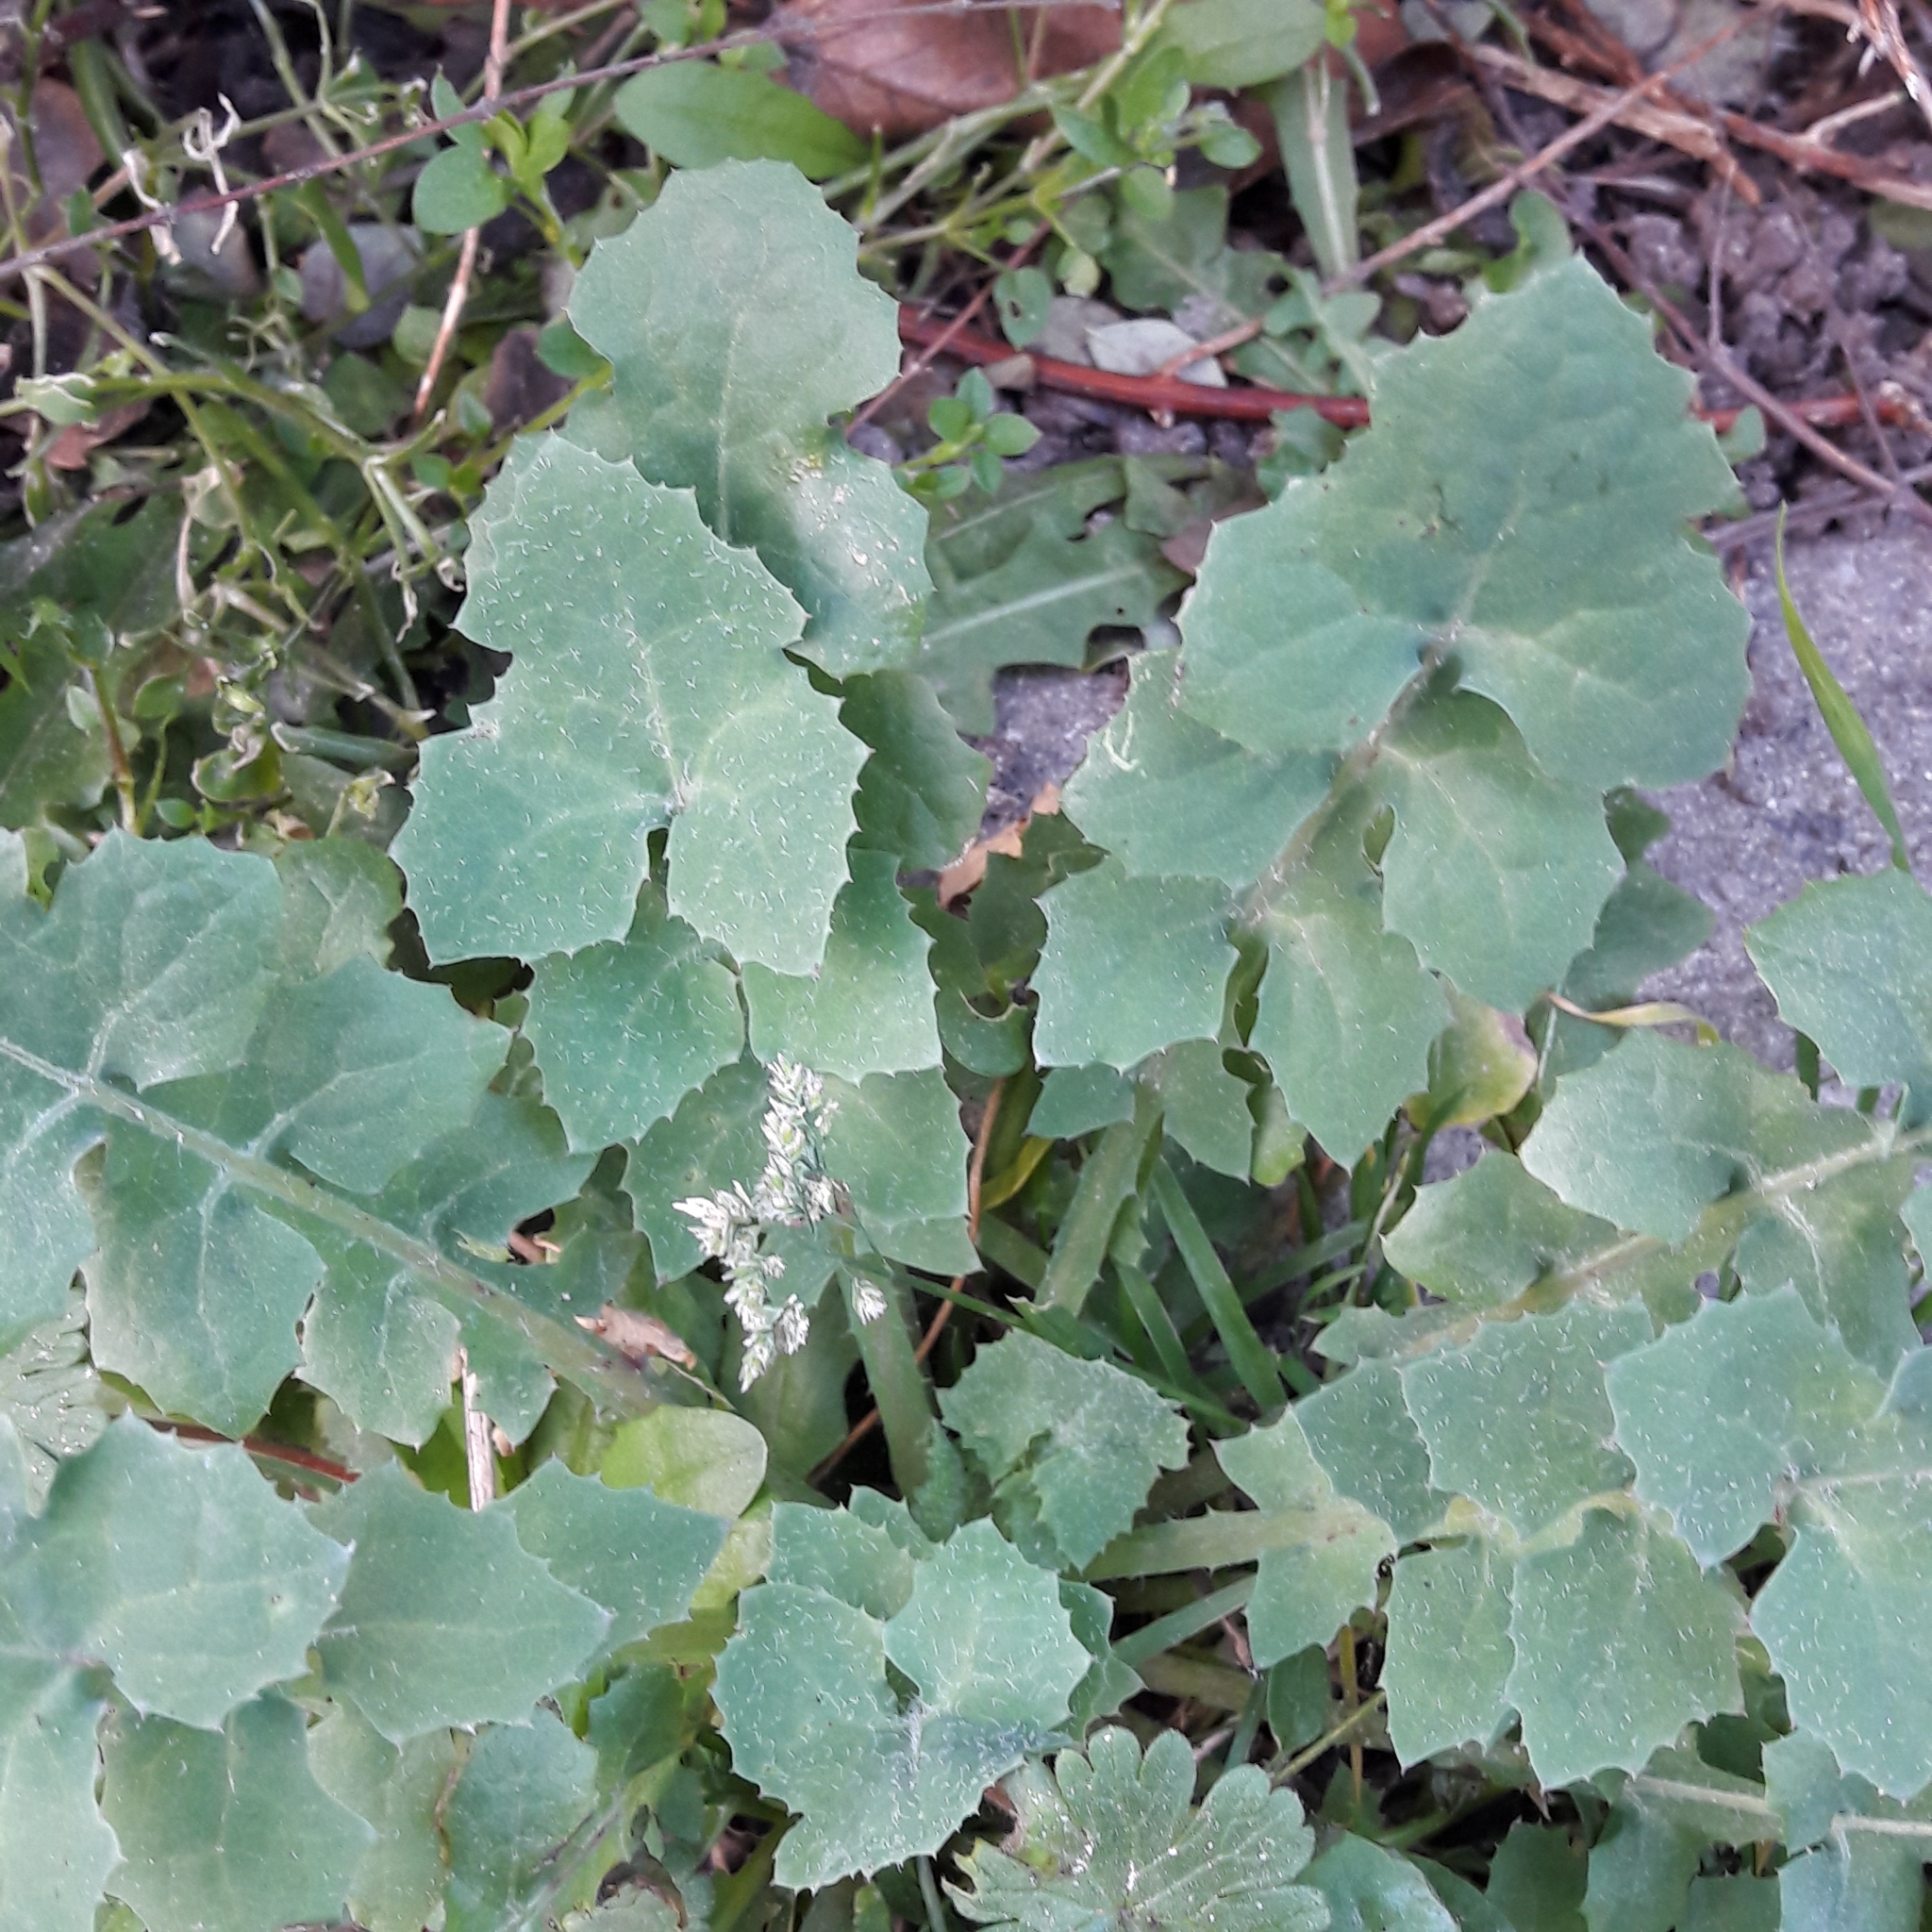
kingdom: Plantae
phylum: Tracheophyta
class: Magnoliopsida
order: Asterales
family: Asteraceae
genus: Sonchus
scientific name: Sonchus oleraceus
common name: Common sowthistle
